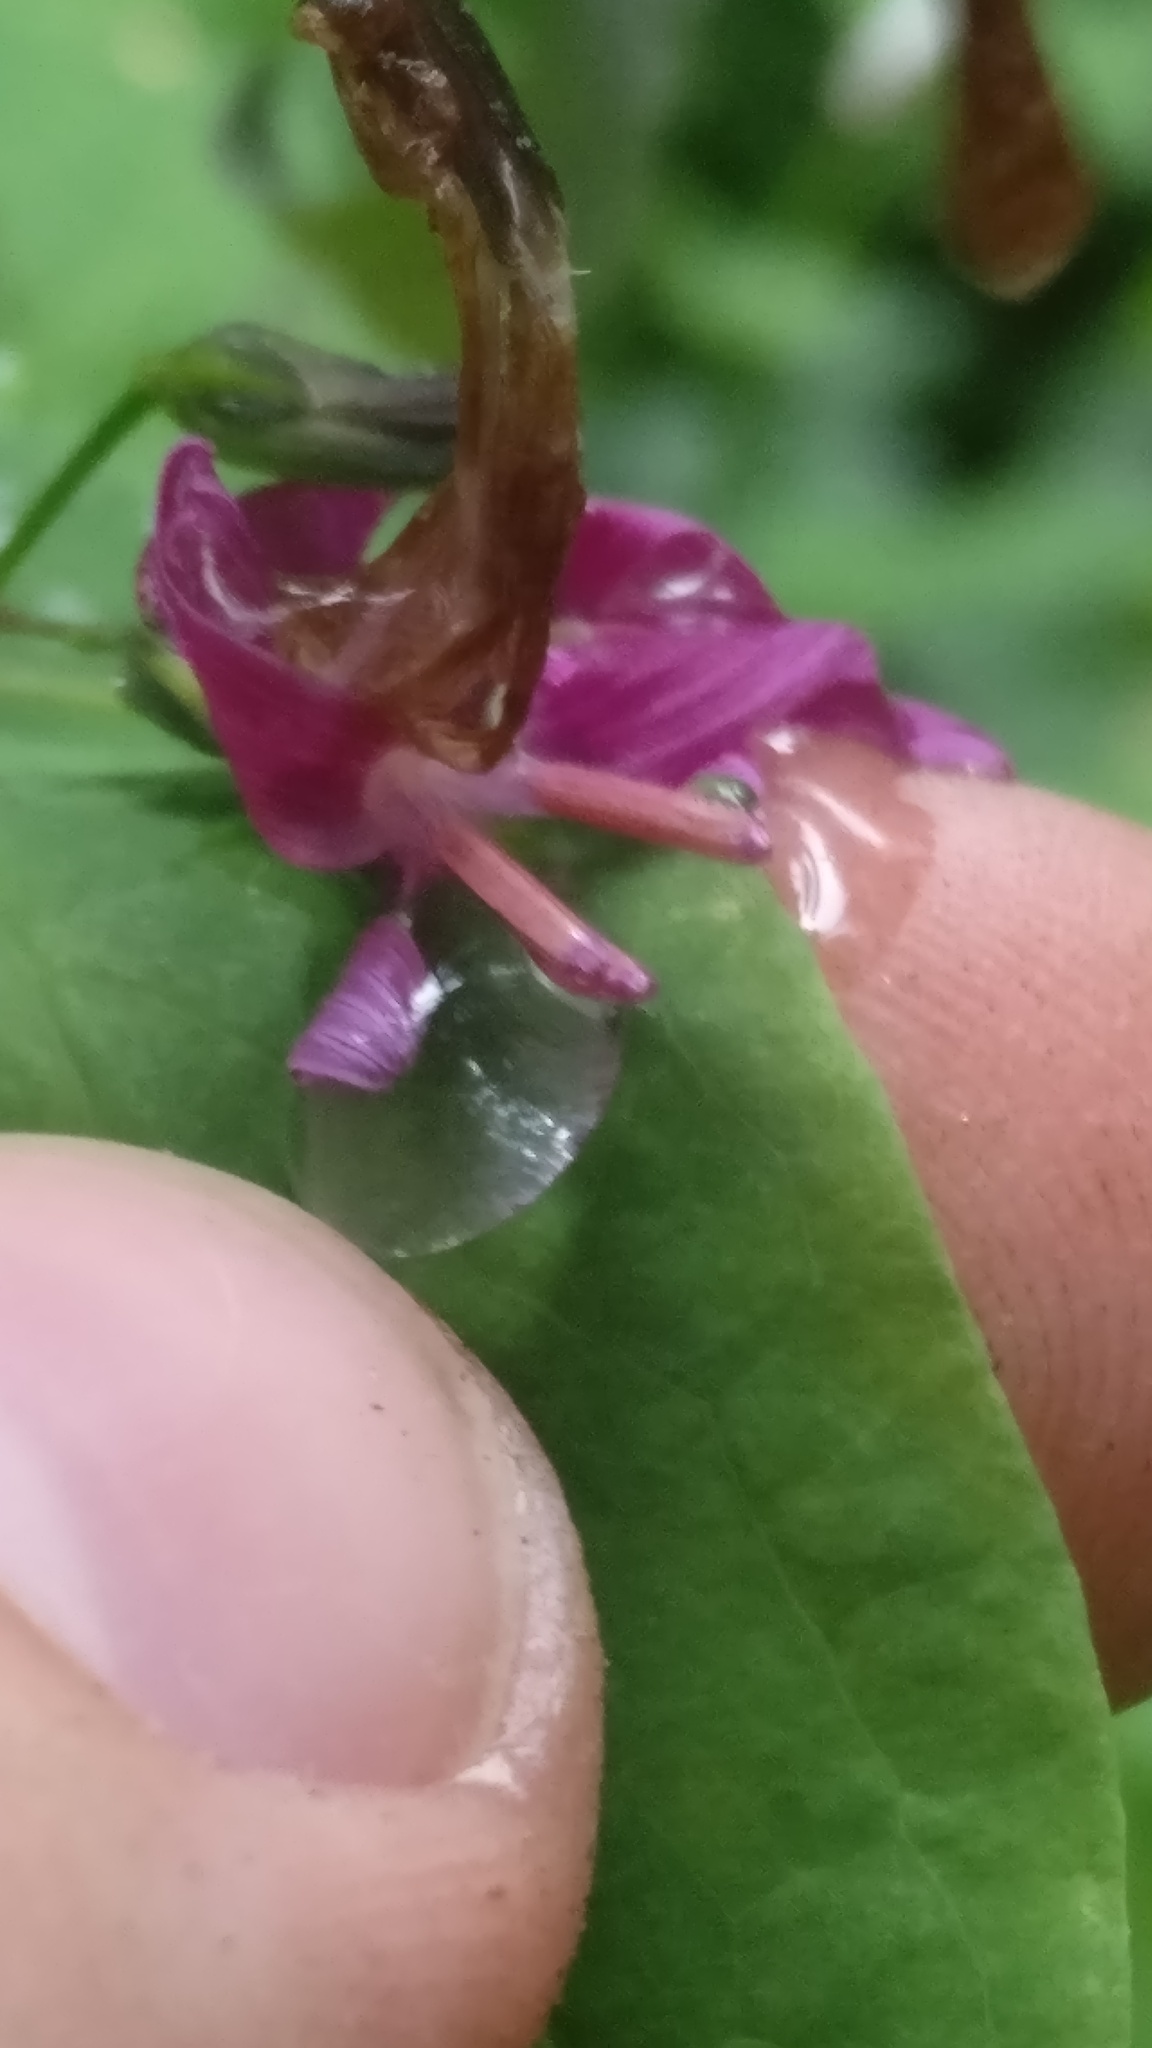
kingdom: Plantae
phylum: Tracheophyta
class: Magnoliopsida
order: Asterales
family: Asteraceae
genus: Prenanthes
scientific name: Prenanthes purpurea
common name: Purple lettuce
